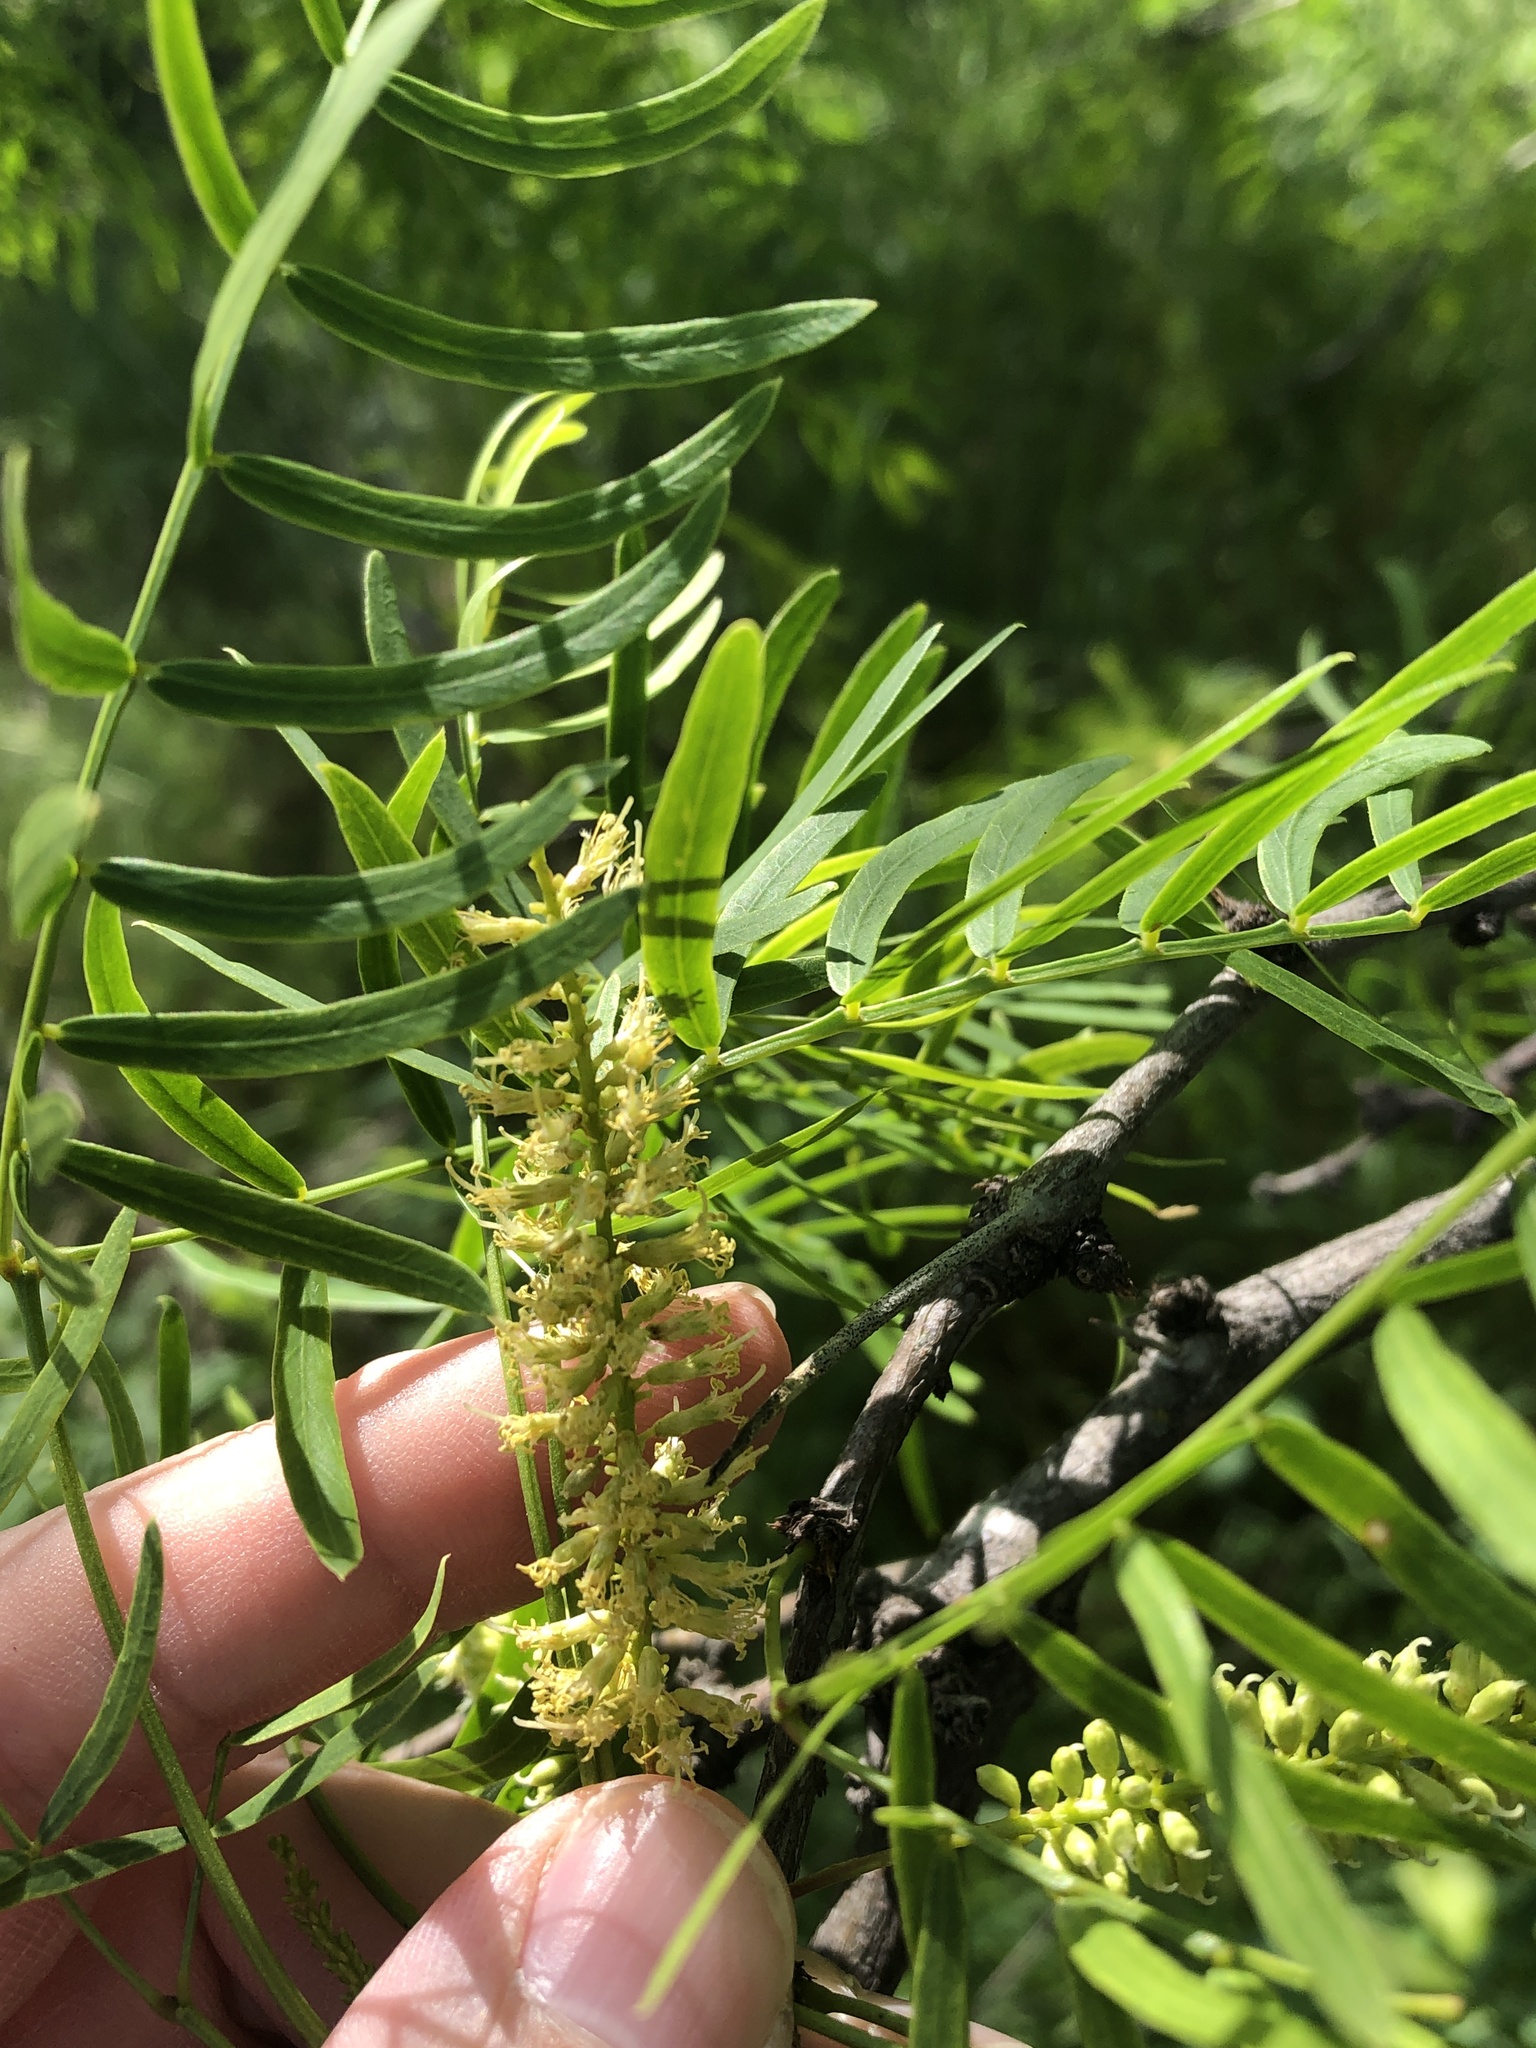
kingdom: Plantae
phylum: Tracheophyta
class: Magnoliopsida
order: Fabales
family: Fabaceae
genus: Prosopis
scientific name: Prosopis glandulosa
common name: Honey mesquite
